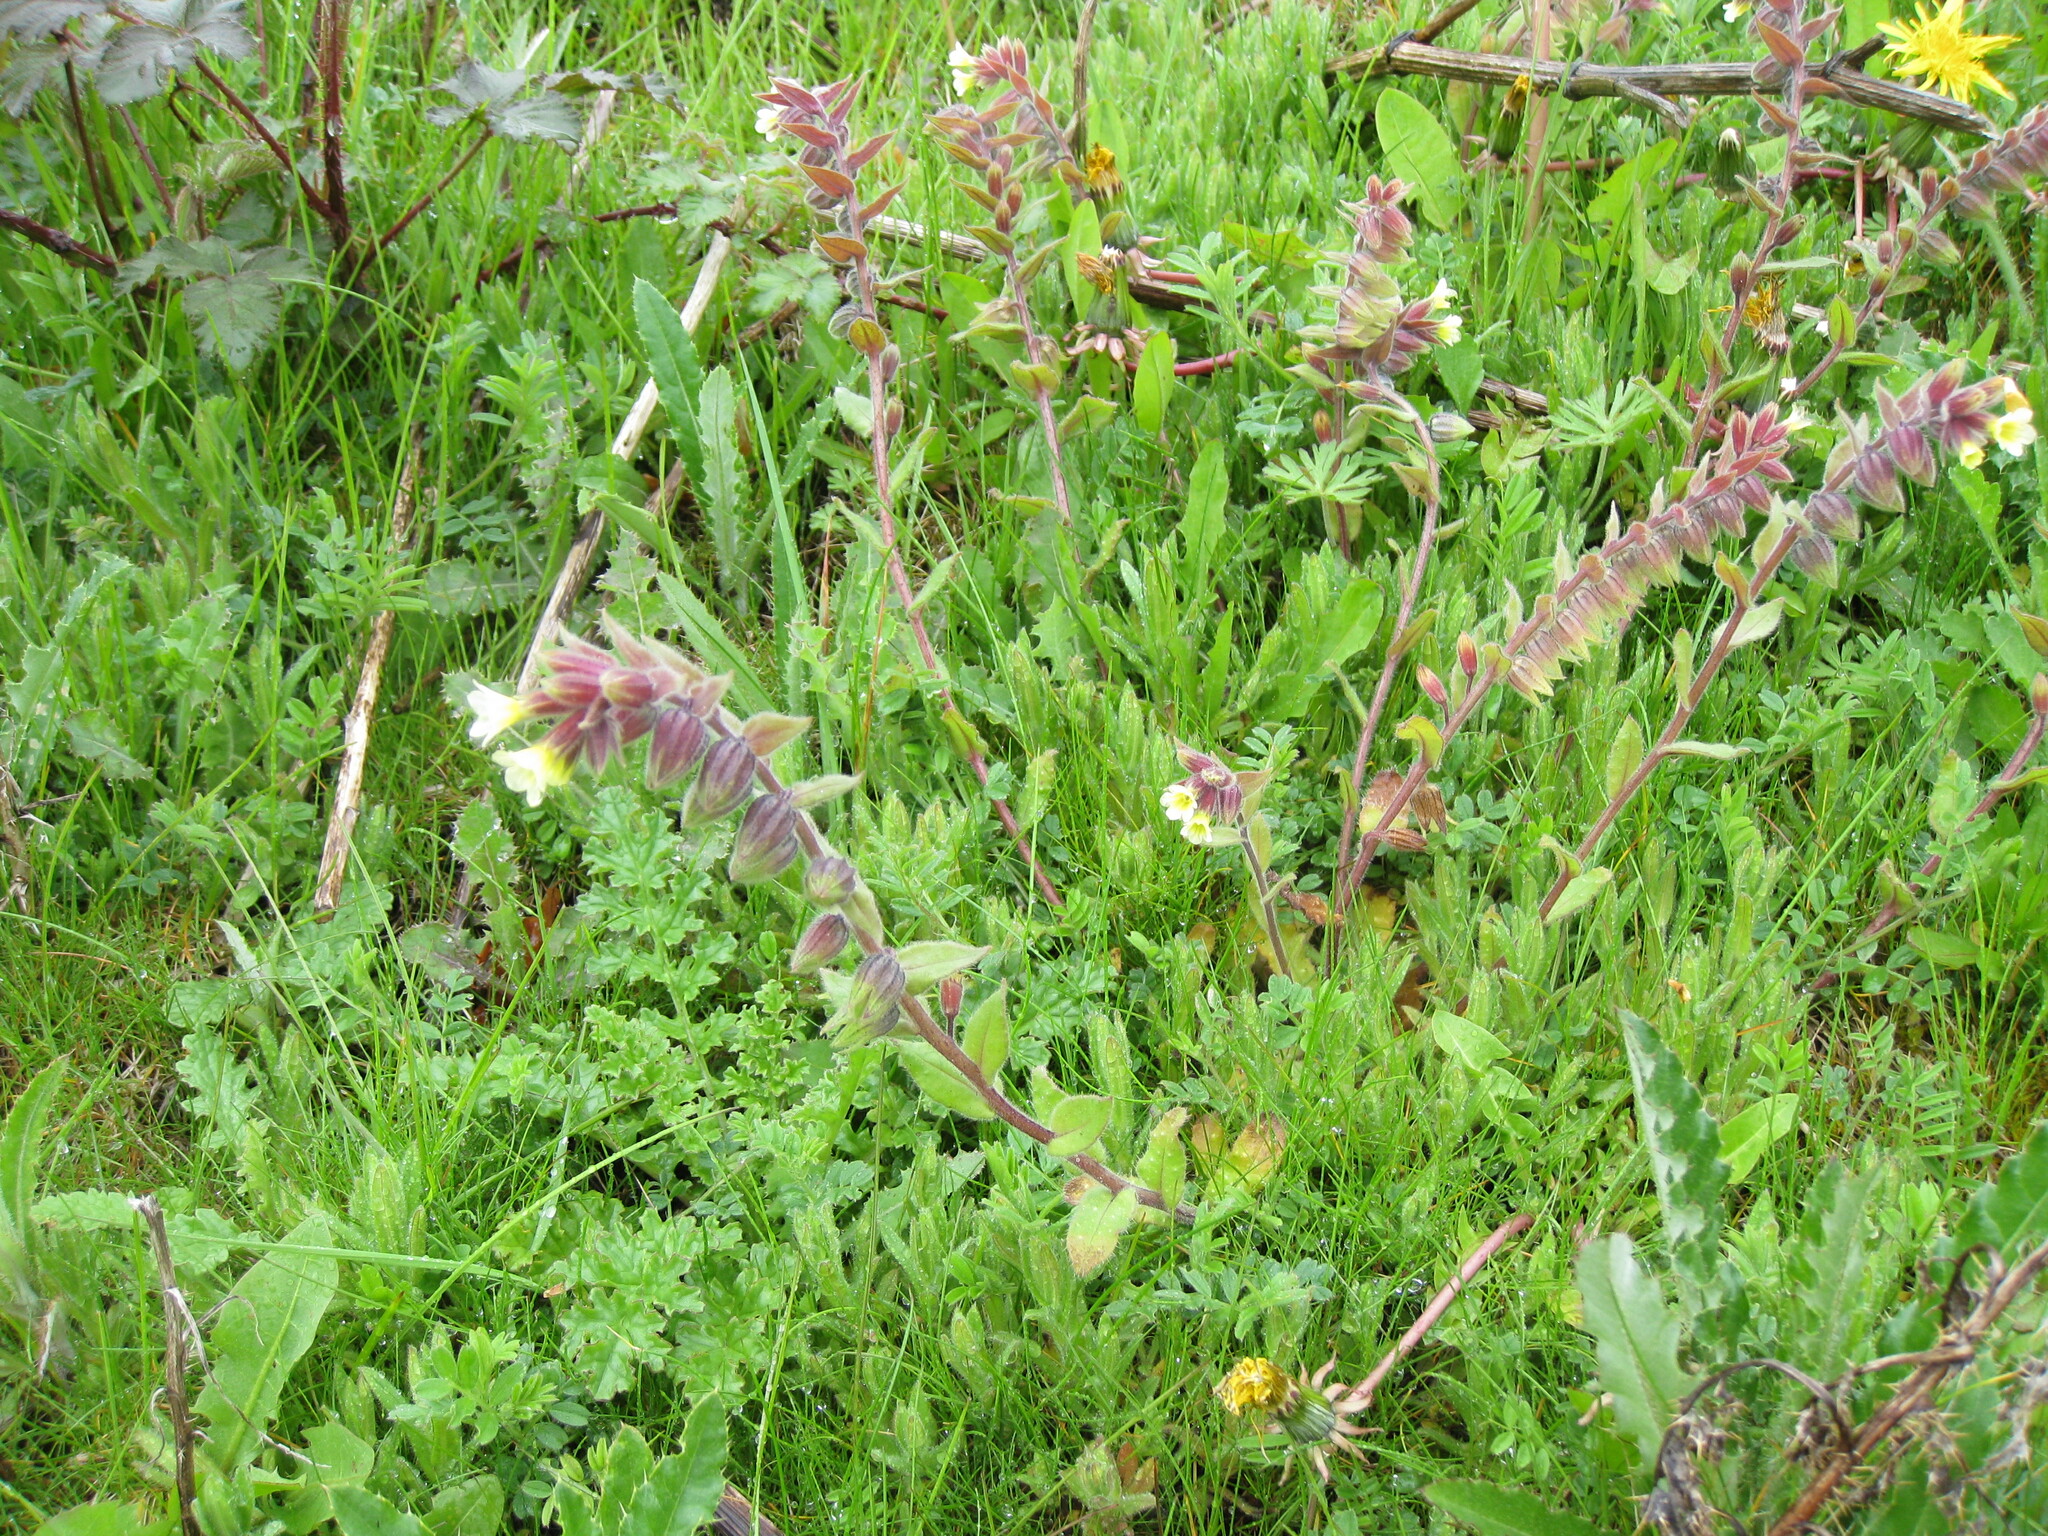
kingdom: Plantae
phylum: Tracheophyta
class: Magnoliopsida
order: Boraginales
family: Boraginaceae
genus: Nonea
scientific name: Nonea lutea
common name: Yellow nonea
